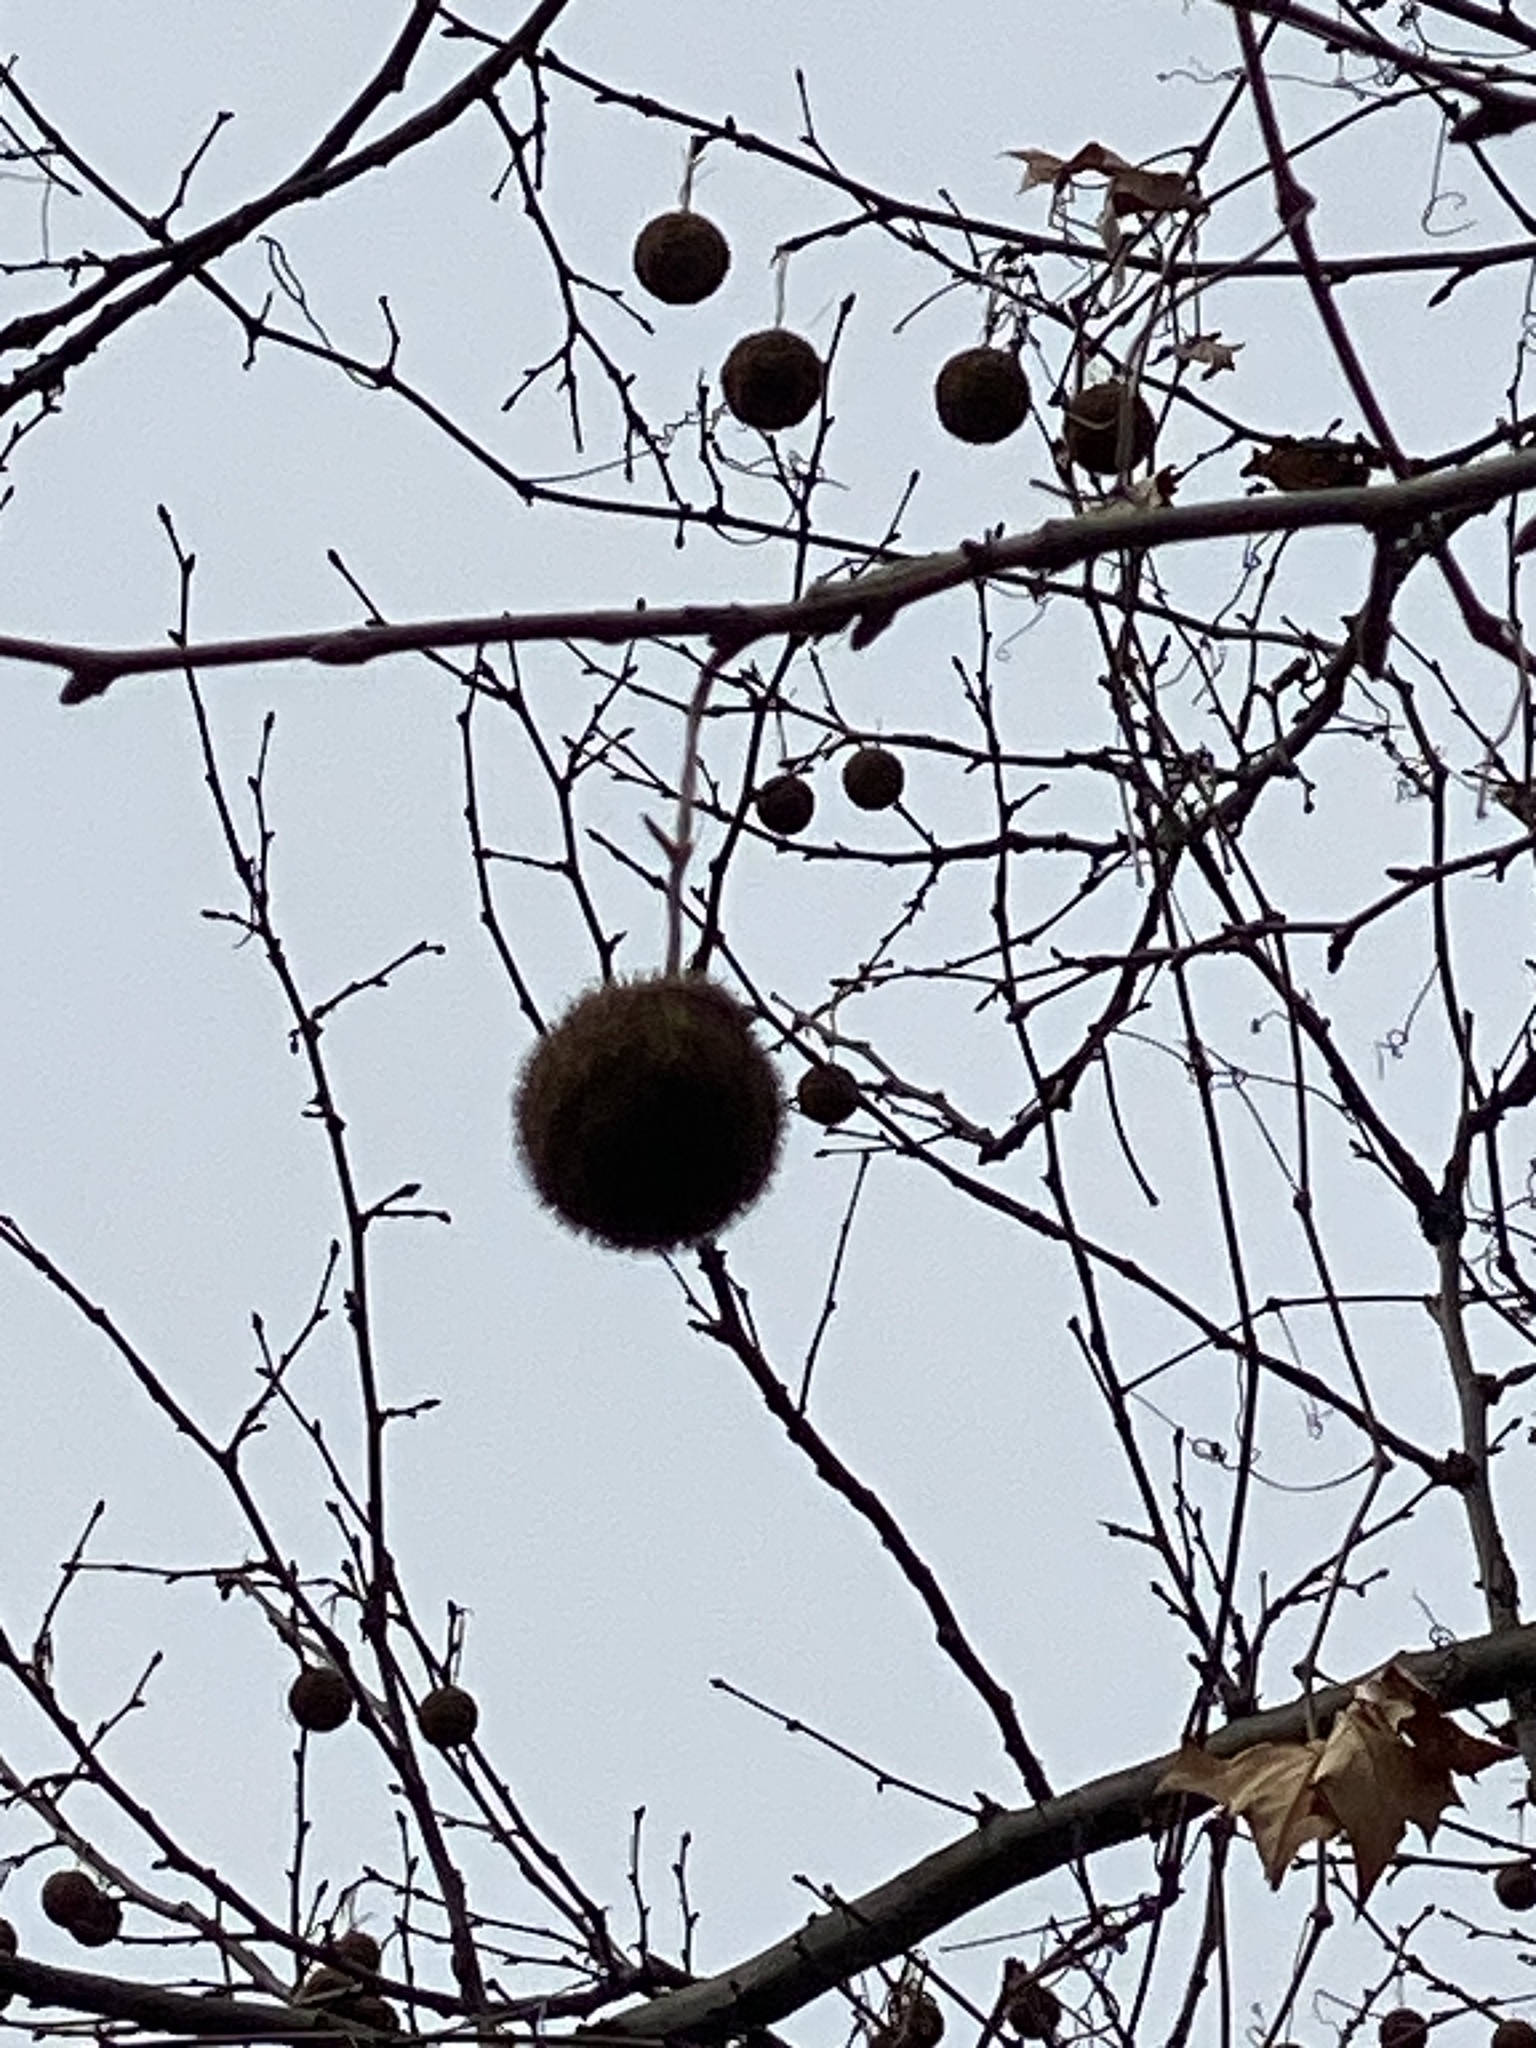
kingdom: Plantae
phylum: Tracheophyta
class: Magnoliopsida
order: Proteales
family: Platanaceae
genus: Platanus
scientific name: Platanus occidentalis
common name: American sycamore
